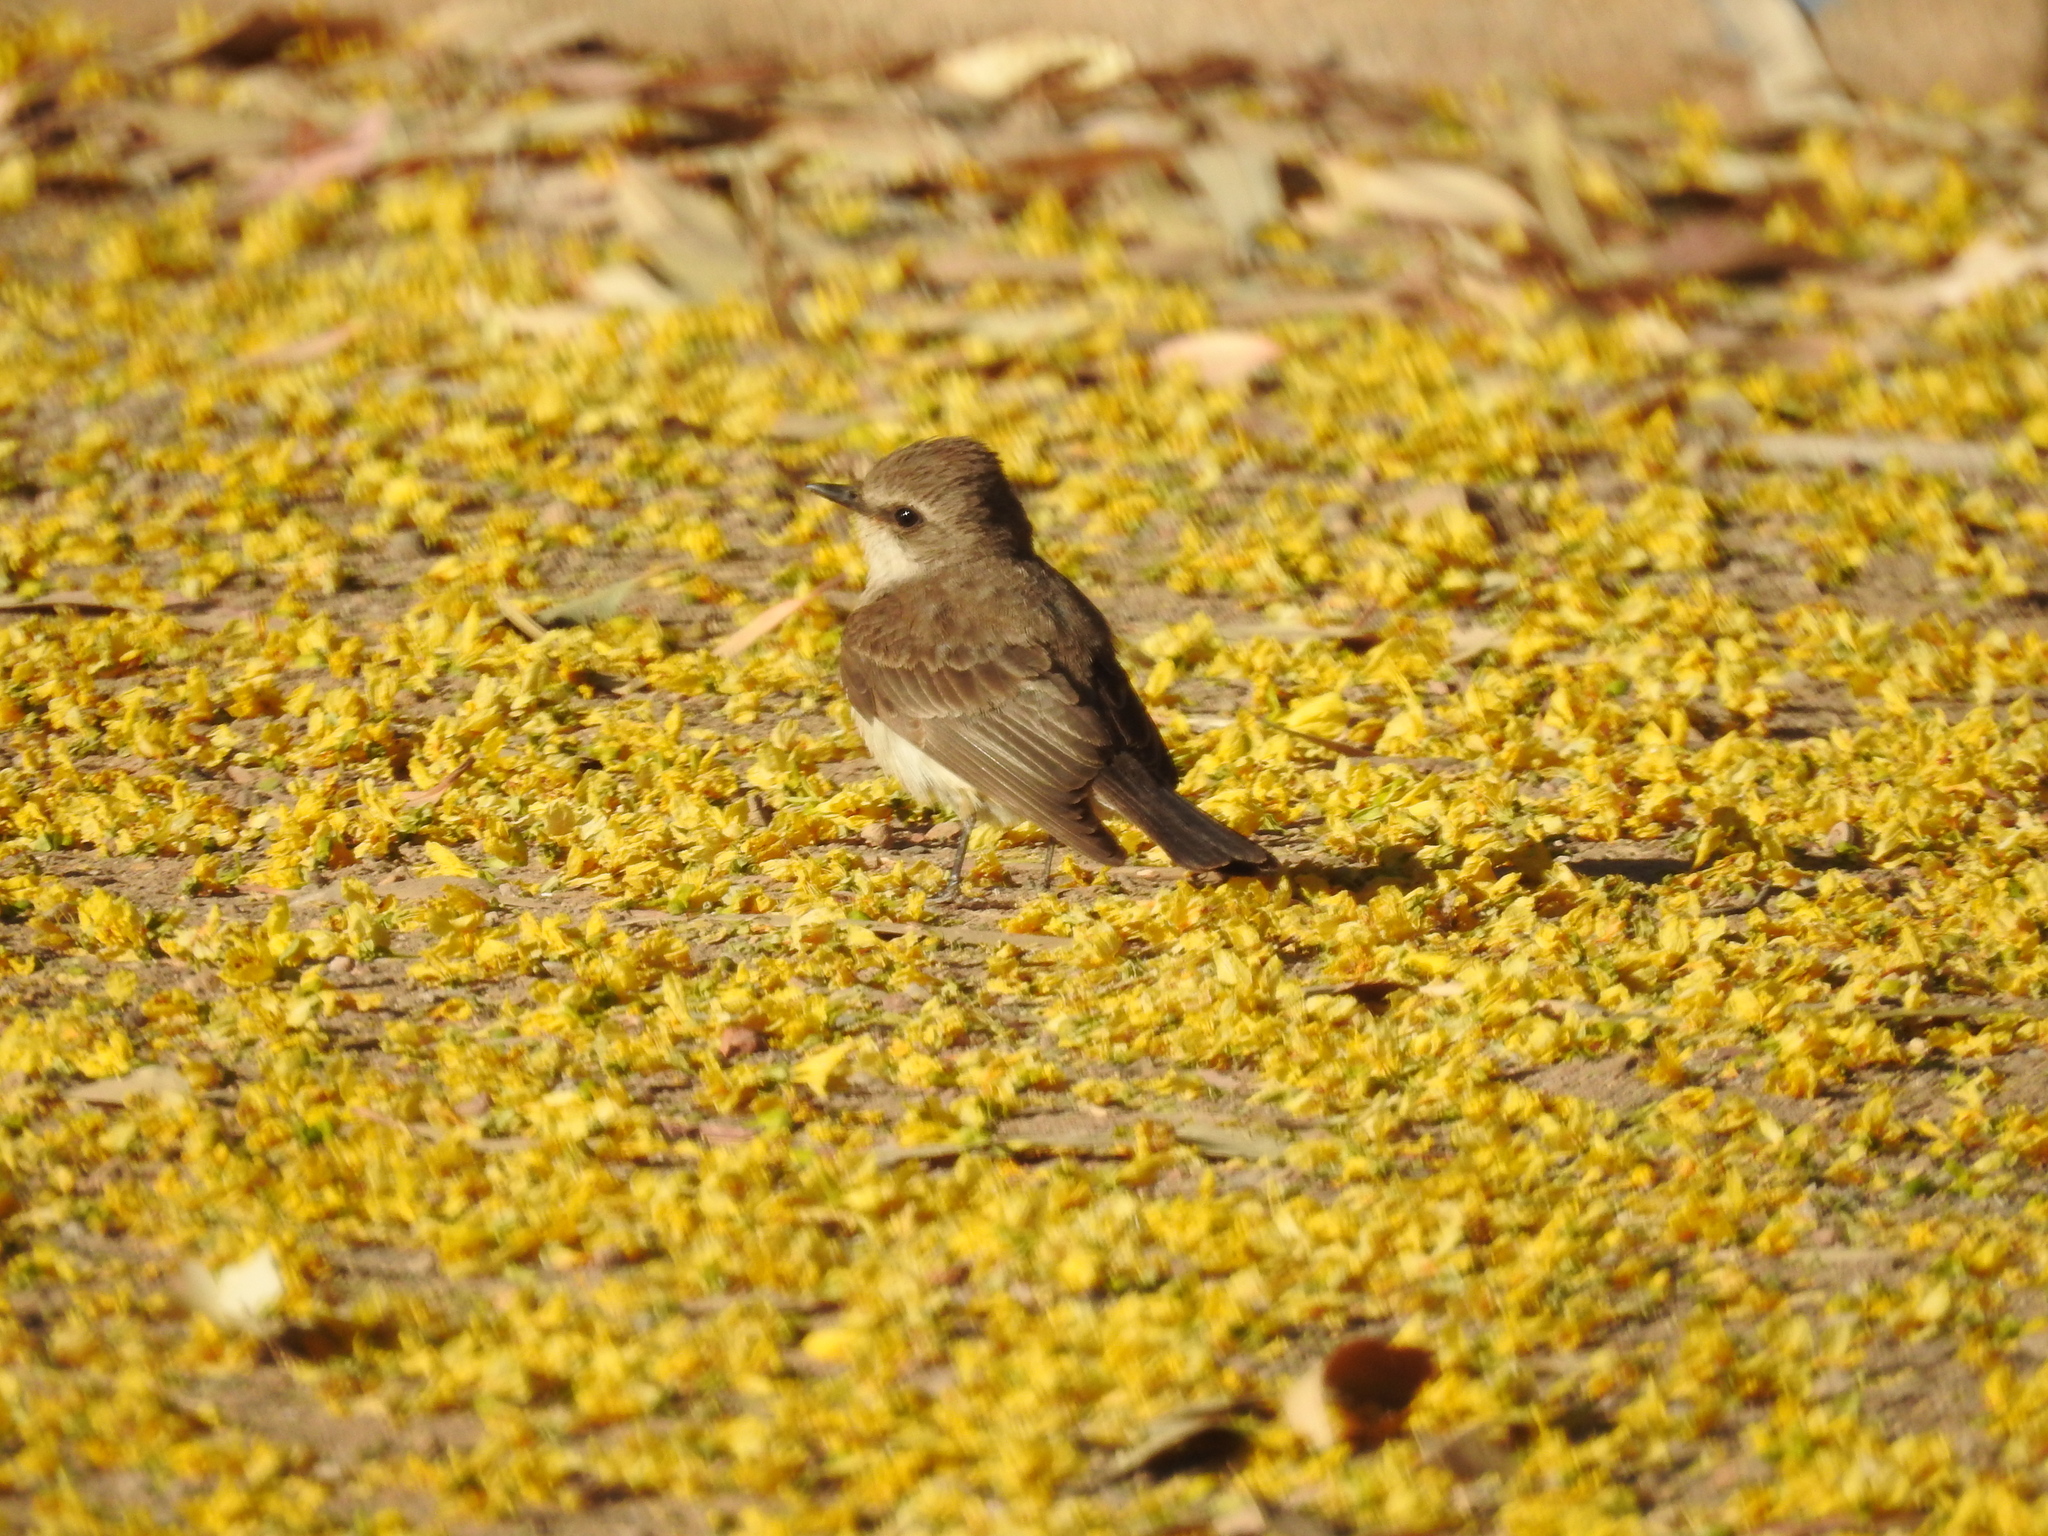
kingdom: Animalia
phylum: Chordata
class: Aves
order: Passeriformes
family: Tyrannidae
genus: Pyrocephalus
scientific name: Pyrocephalus rubinus
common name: Vermilion flycatcher
